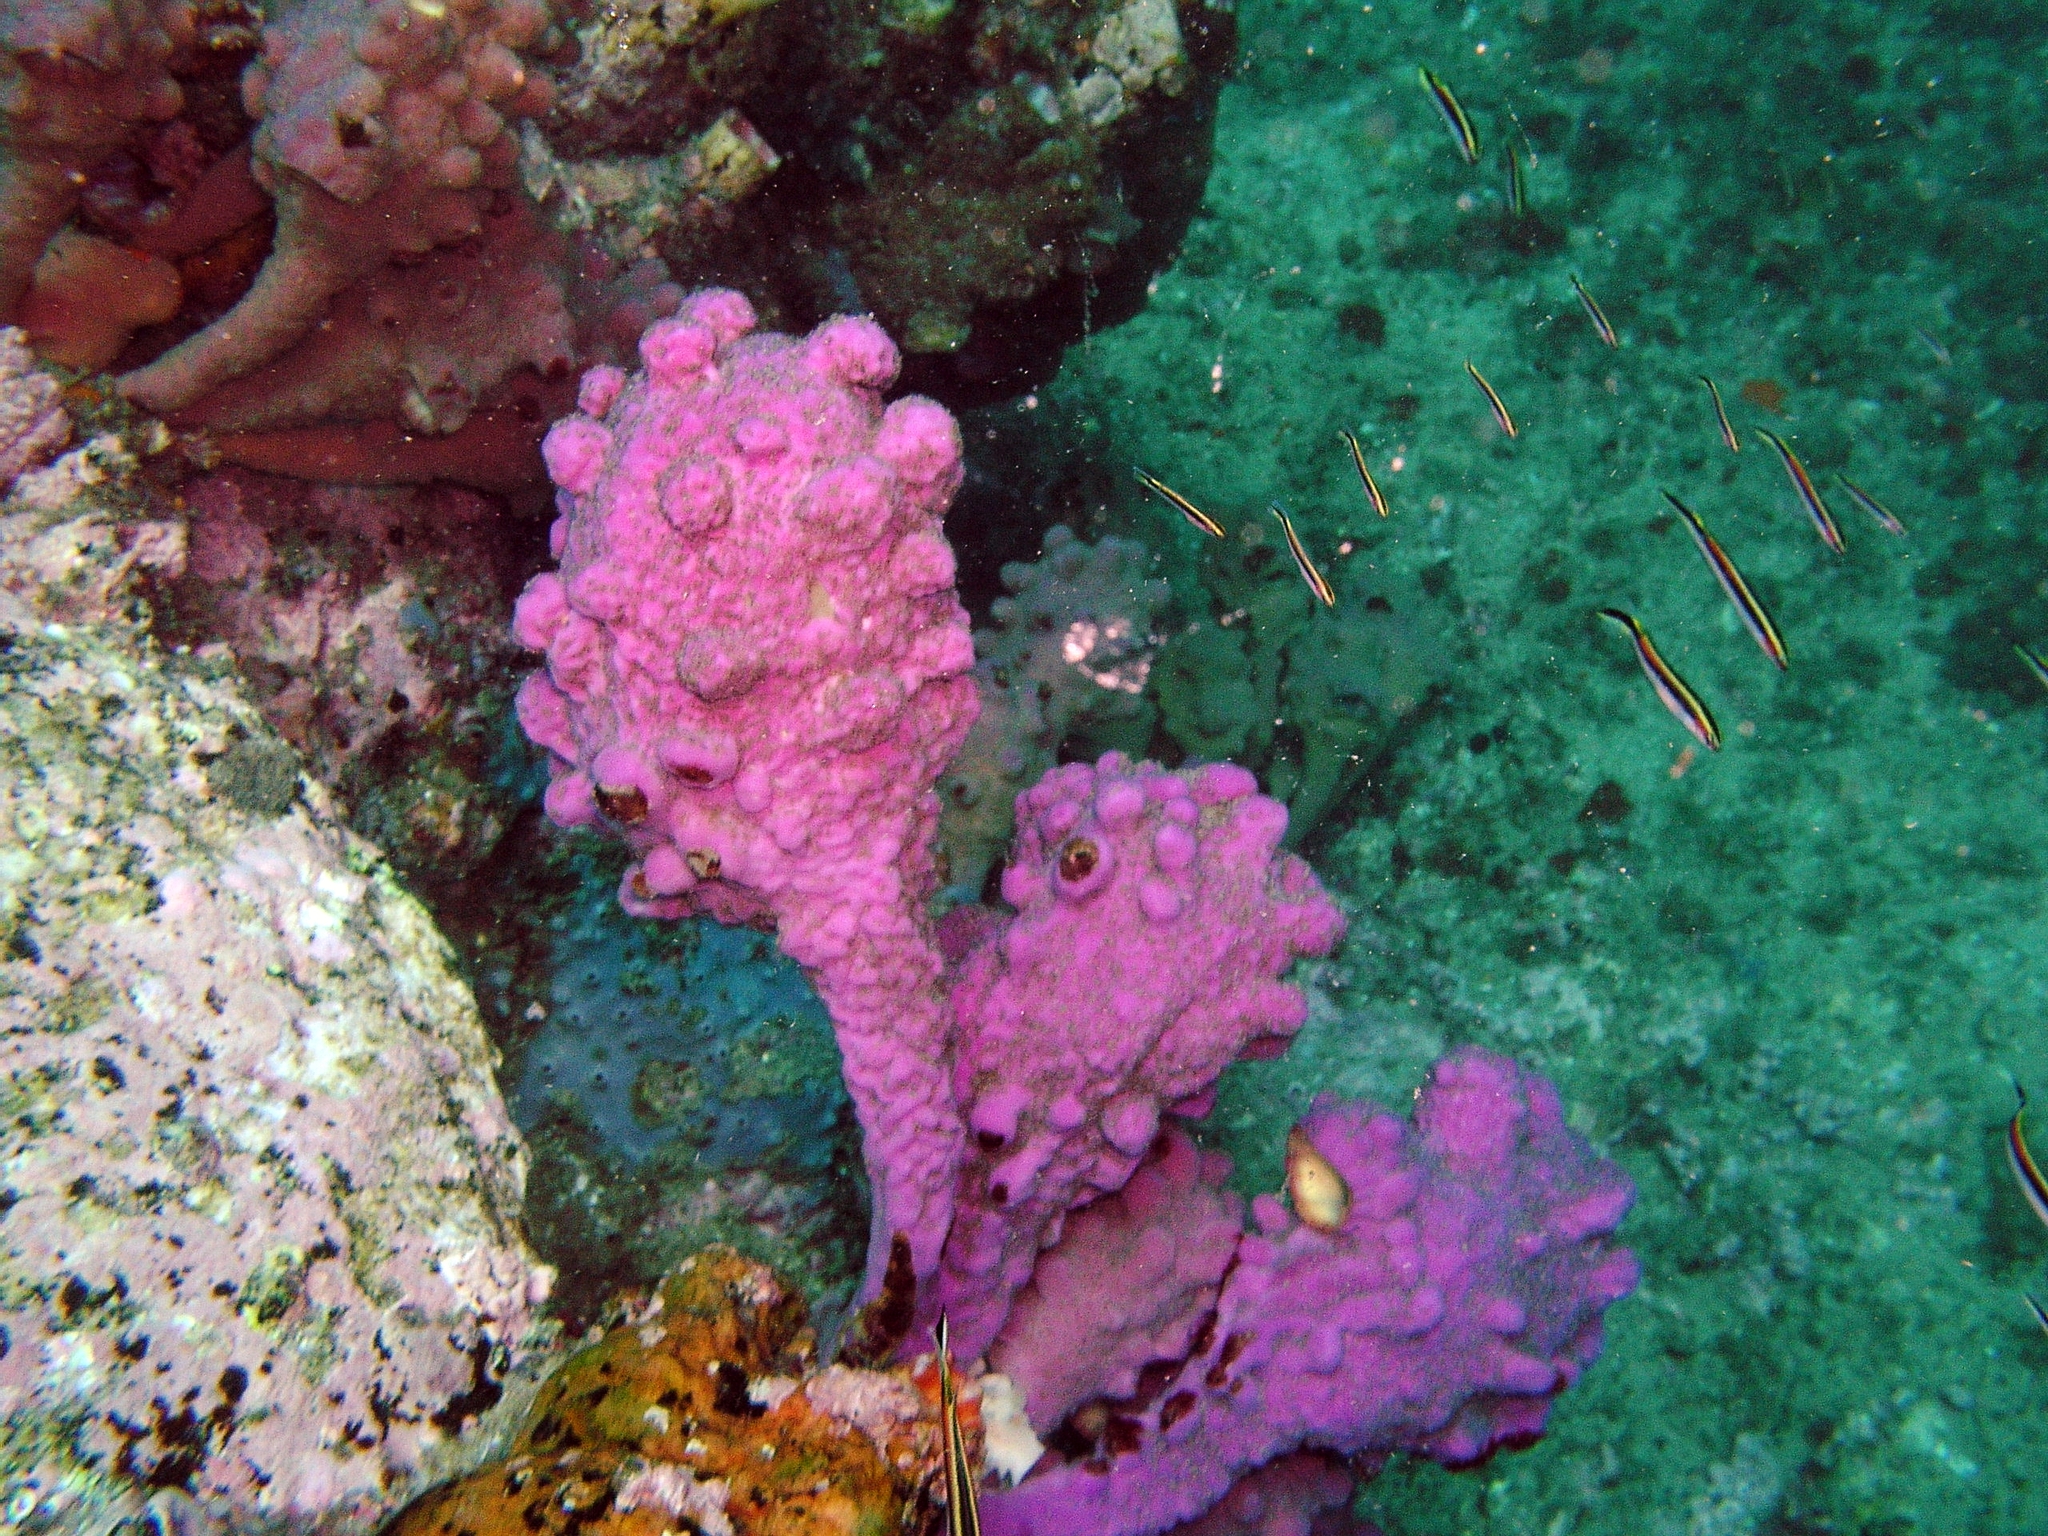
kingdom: Animalia
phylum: Chordata
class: Ascidiacea
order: Stolidobranchia
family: Pyuridae
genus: Pyura
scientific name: Pyura spinifera
